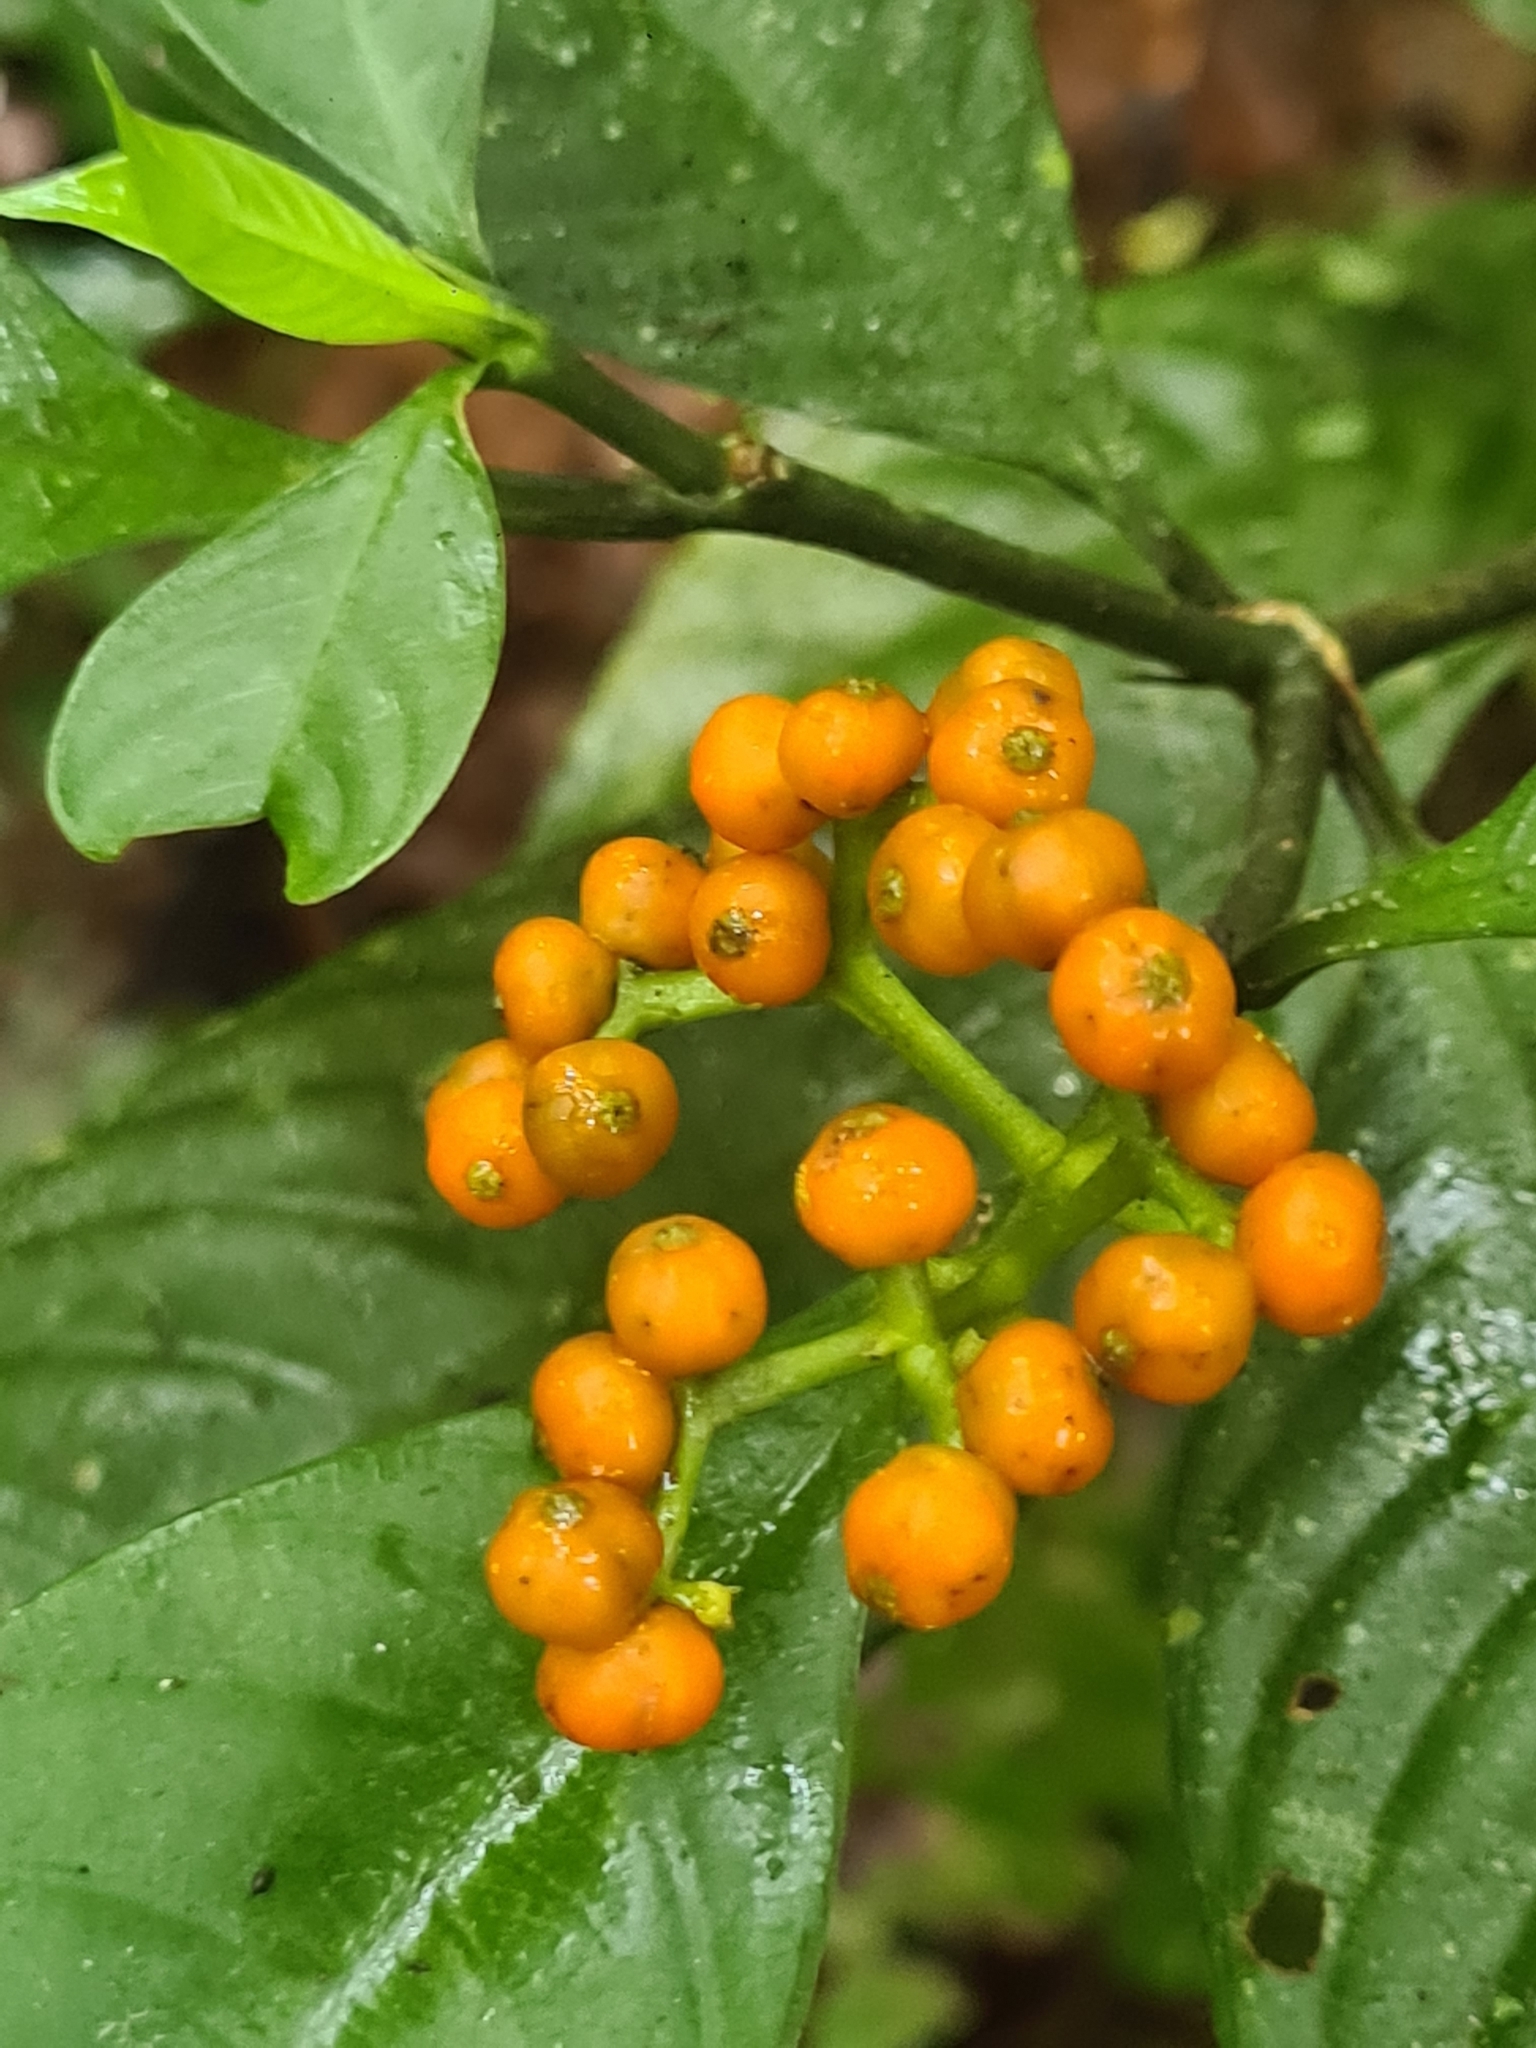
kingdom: Plantae
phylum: Tracheophyta
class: Magnoliopsida
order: Gentianales
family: Rubiaceae
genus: Palicourea
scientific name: Palicourea racemosa
